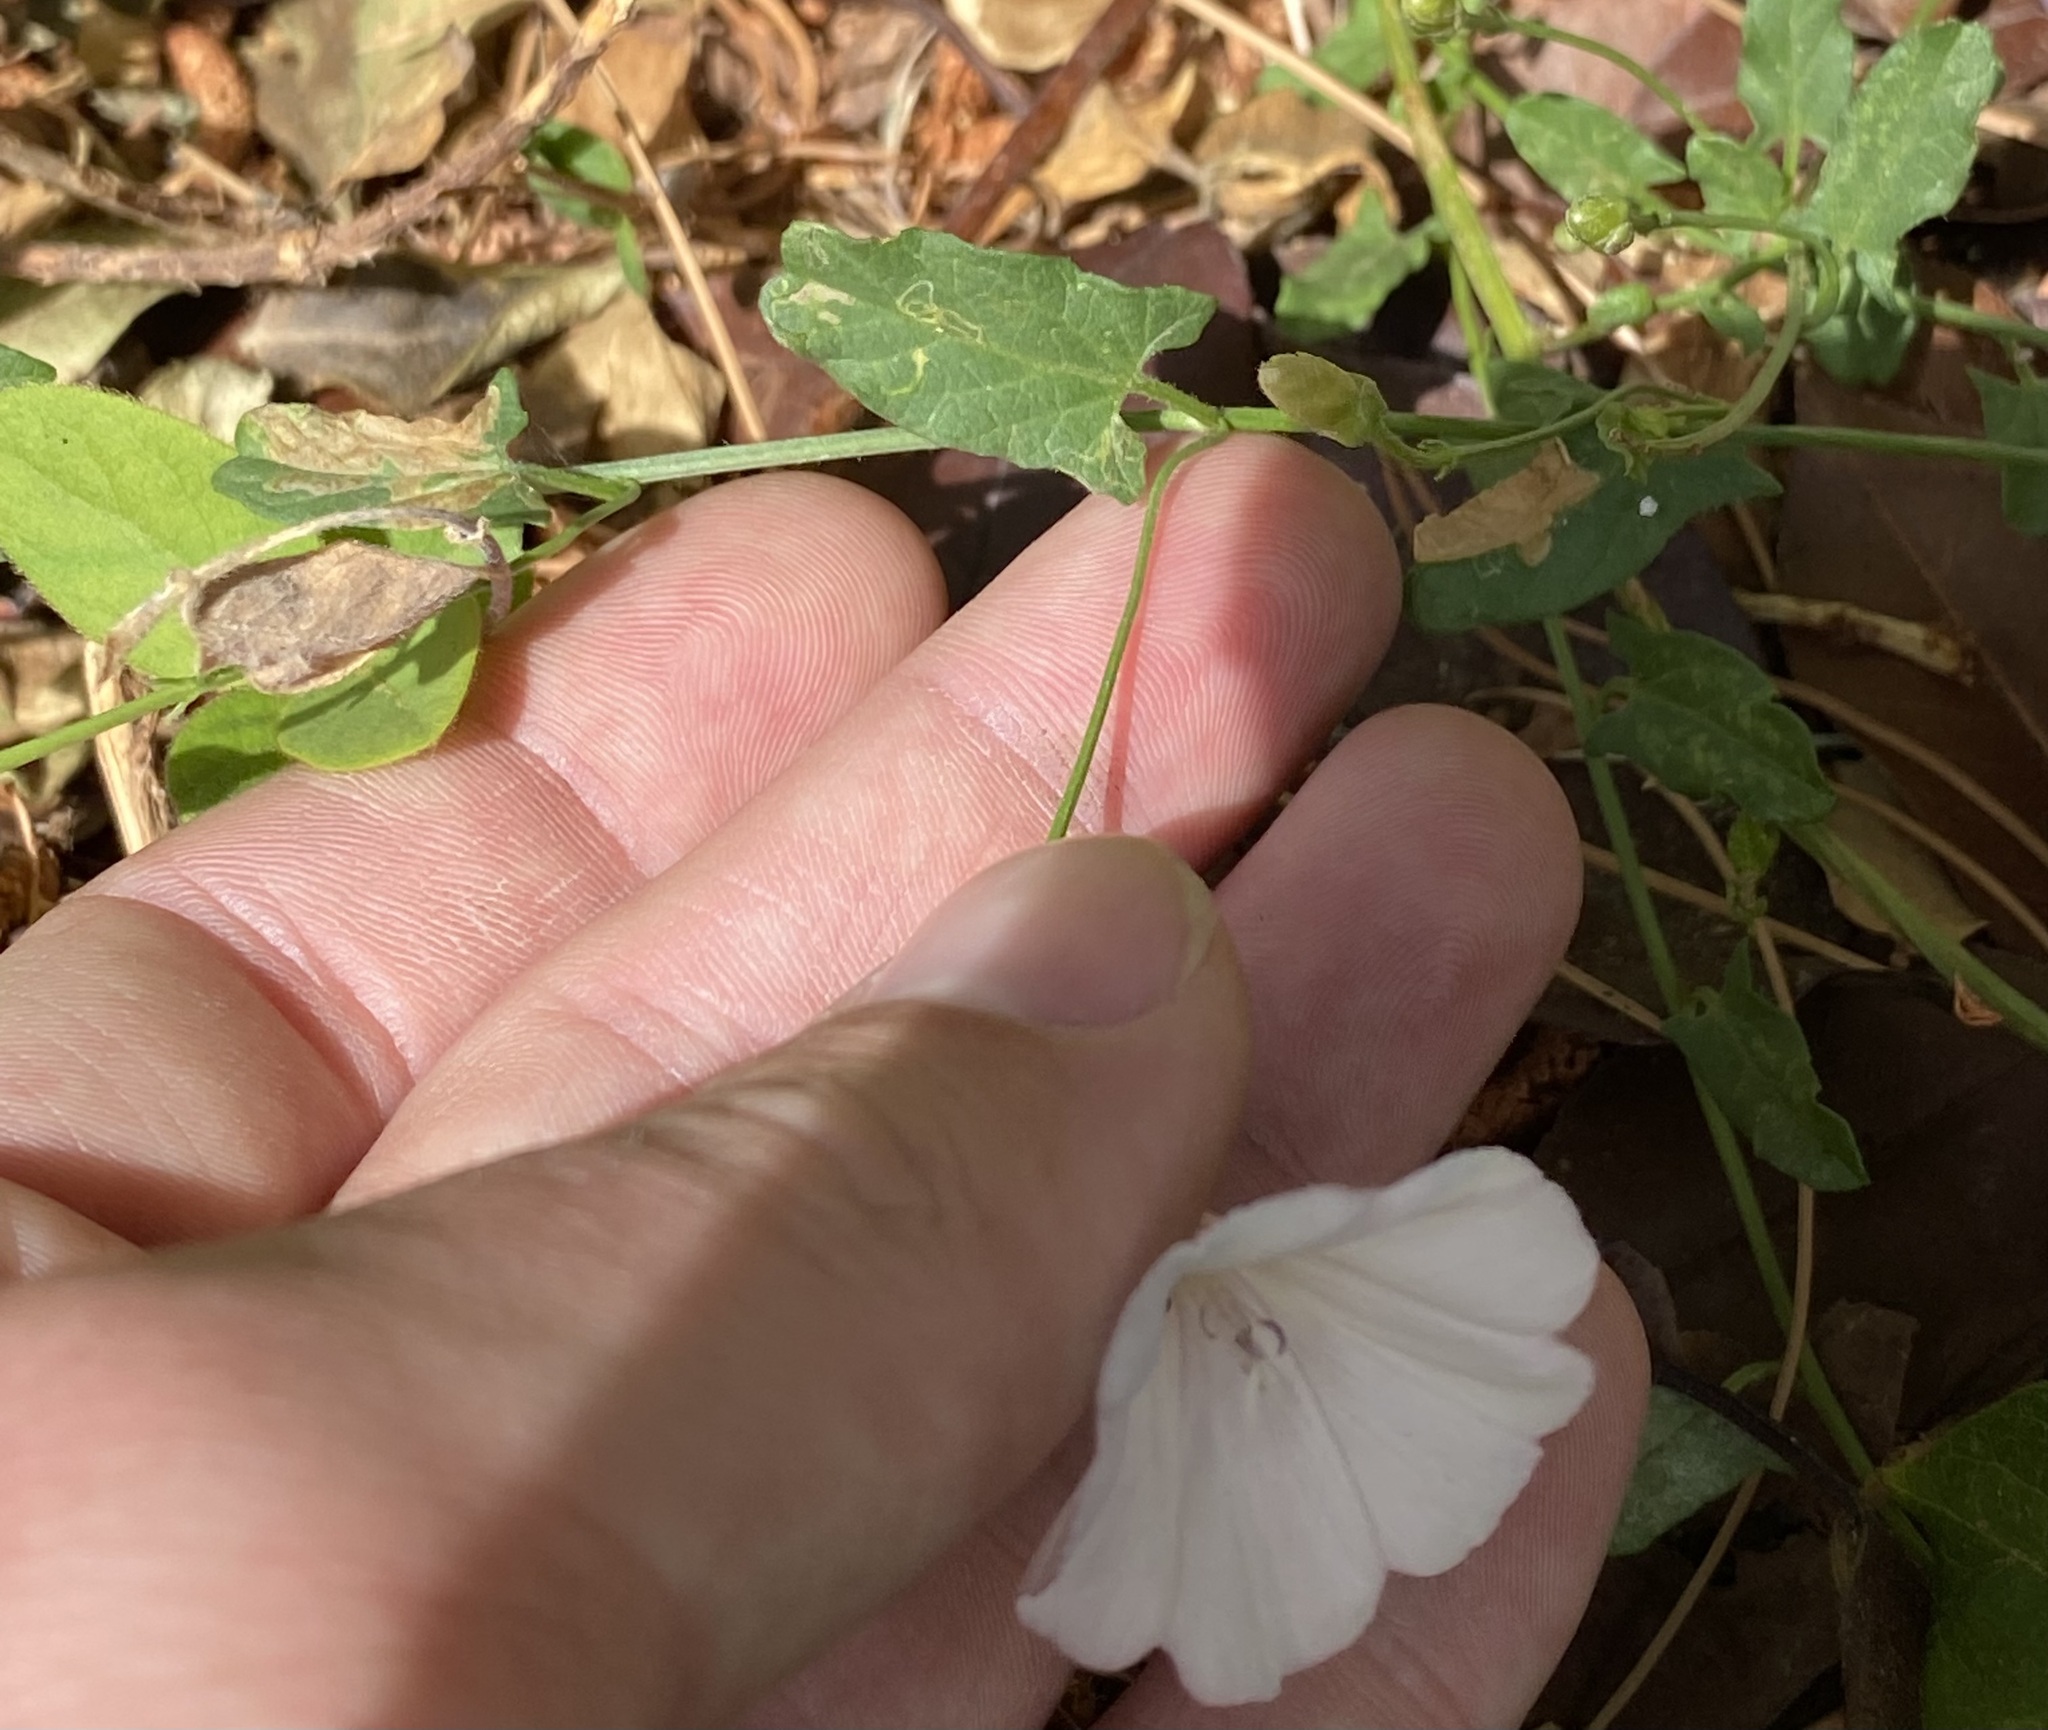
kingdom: Plantae
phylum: Tracheophyta
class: Magnoliopsida
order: Solanales
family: Convolvulaceae
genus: Convolvulus
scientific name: Convolvulus arvensis
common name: Field bindweed
